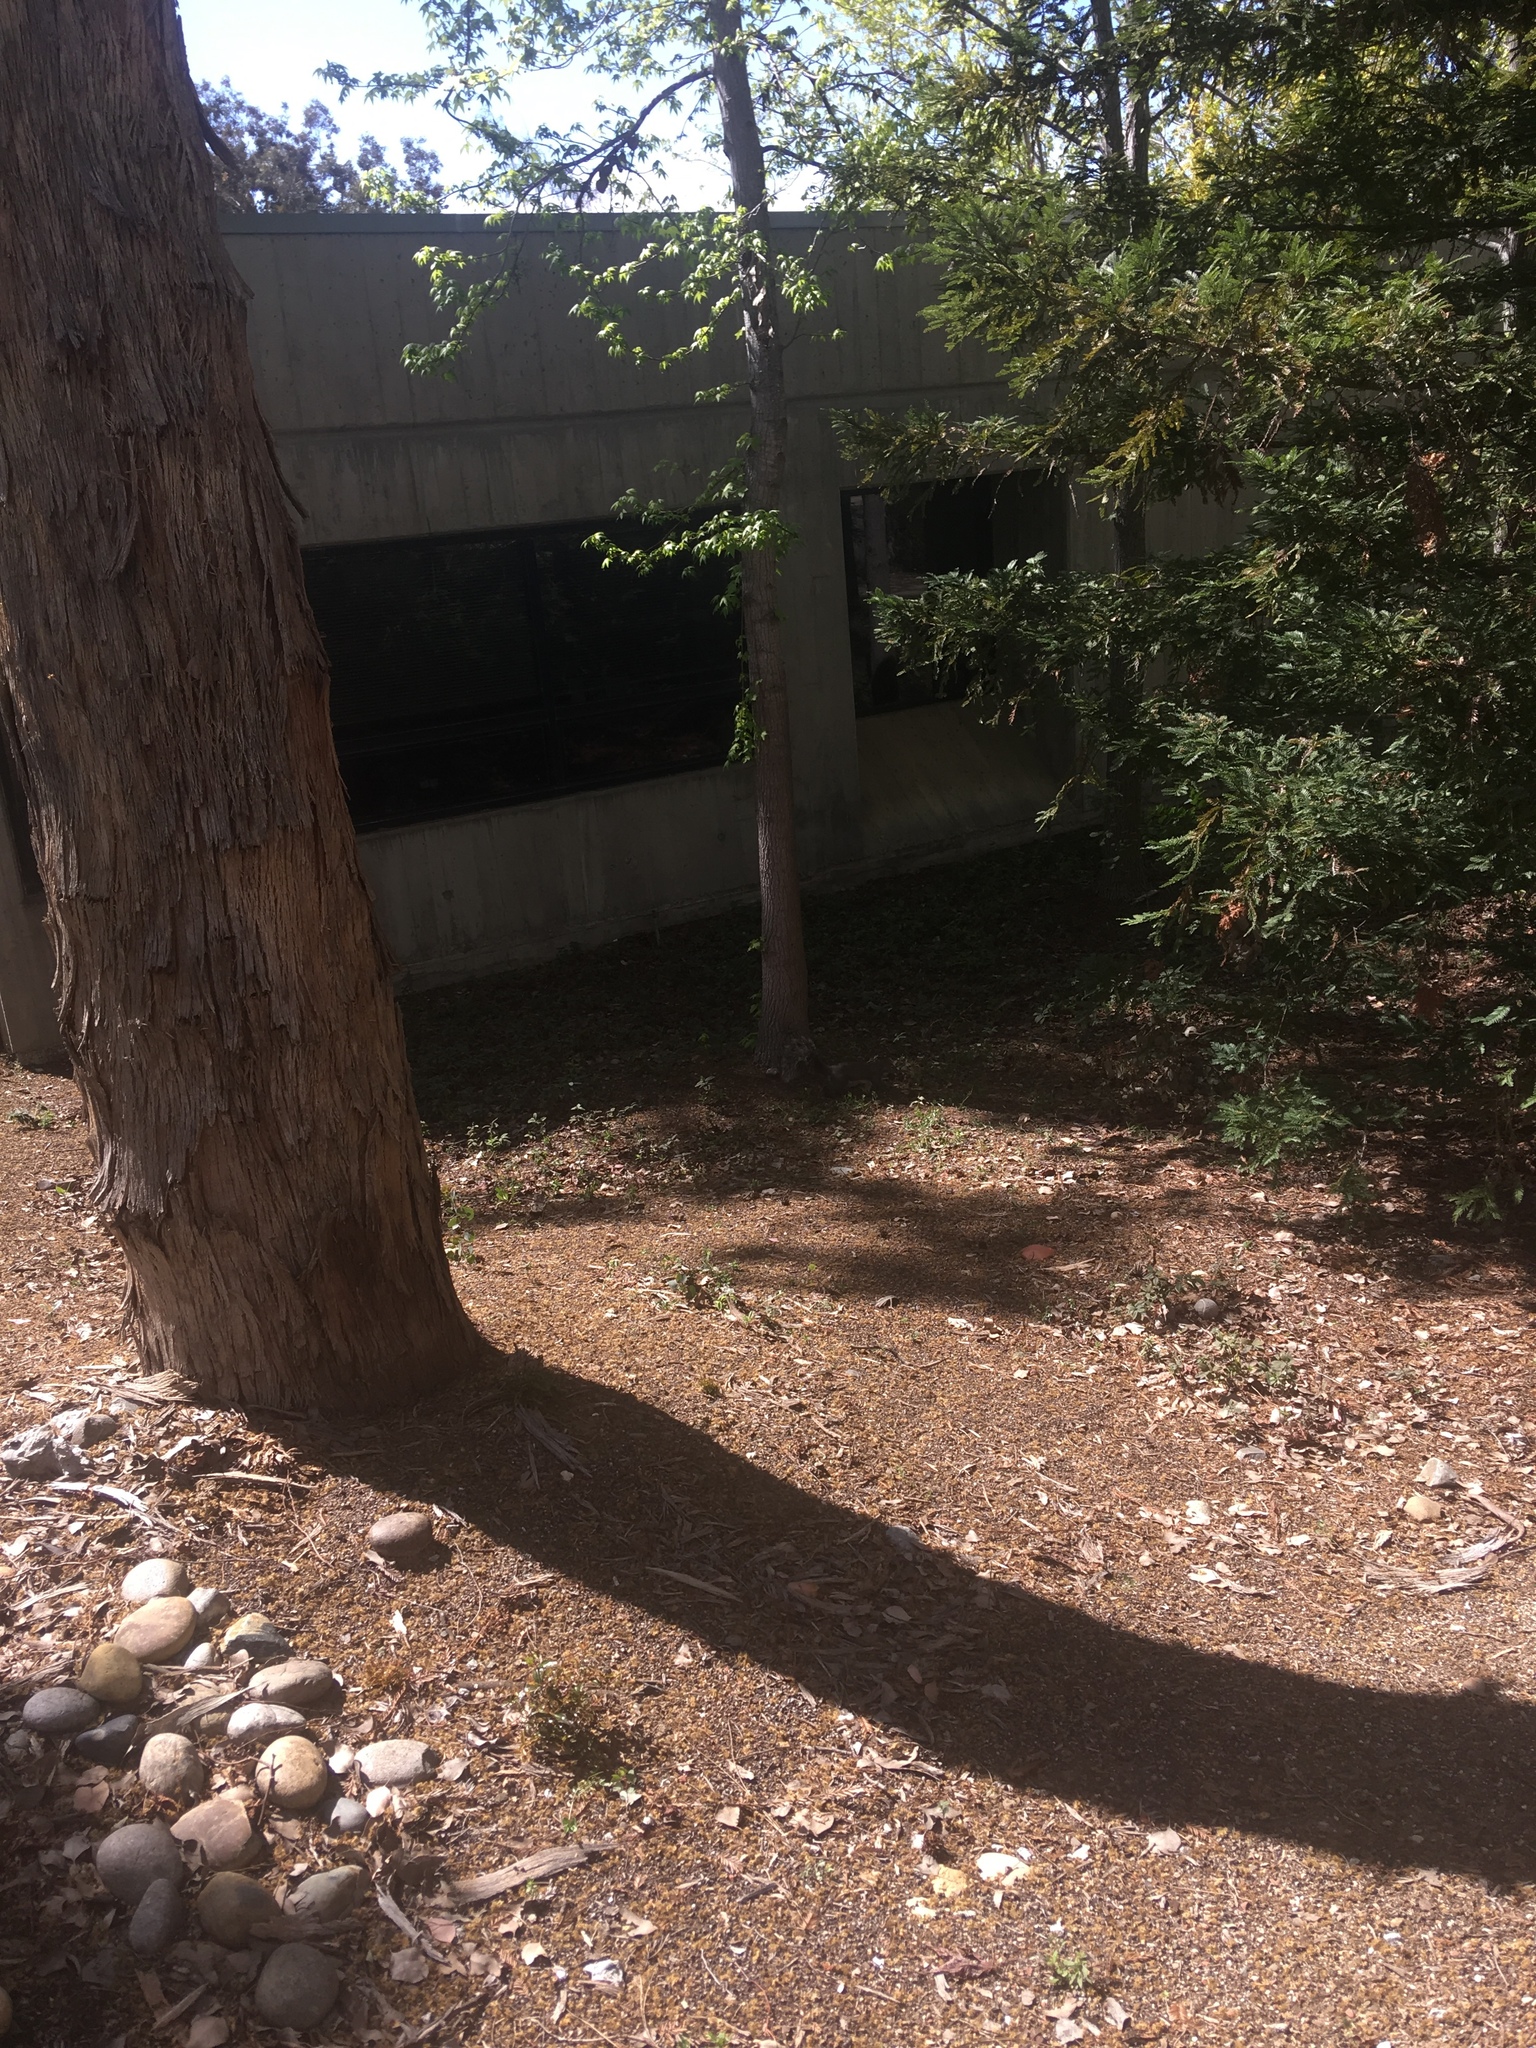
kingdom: Animalia
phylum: Chordata
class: Mammalia
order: Rodentia
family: Sciuridae
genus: Sciurus
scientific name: Sciurus griseus
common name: Western gray squirrel
